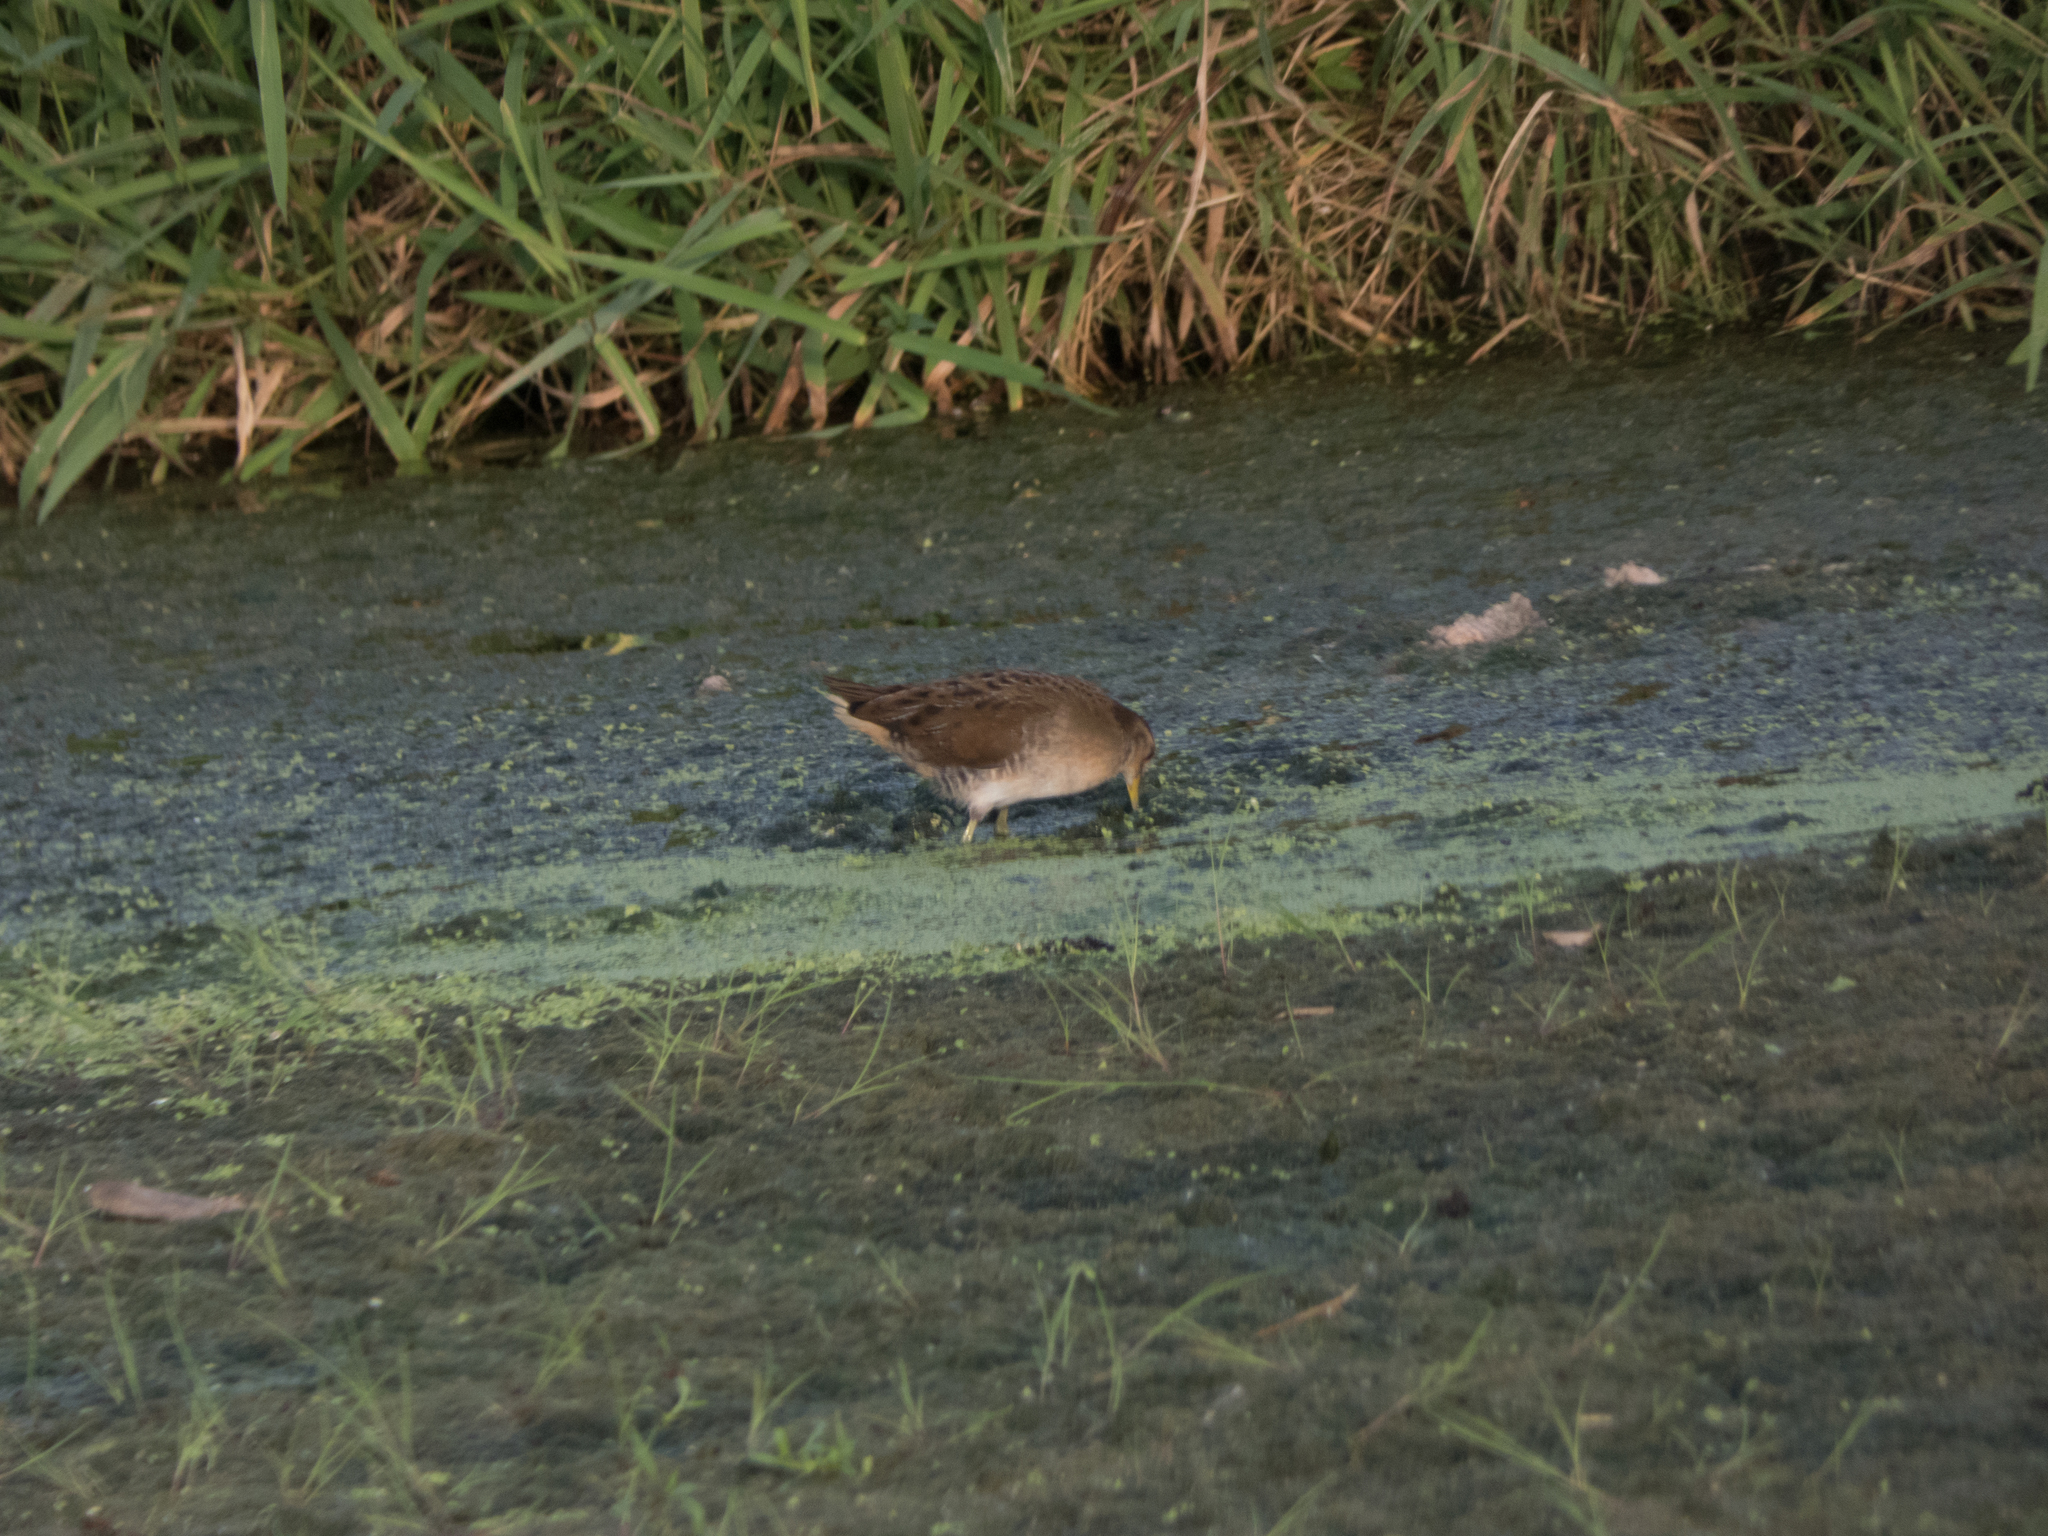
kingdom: Animalia
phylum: Chordata
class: Aves
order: Gruiformes
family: Rallidae
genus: Porzana
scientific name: Porzana carolina
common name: Sora
